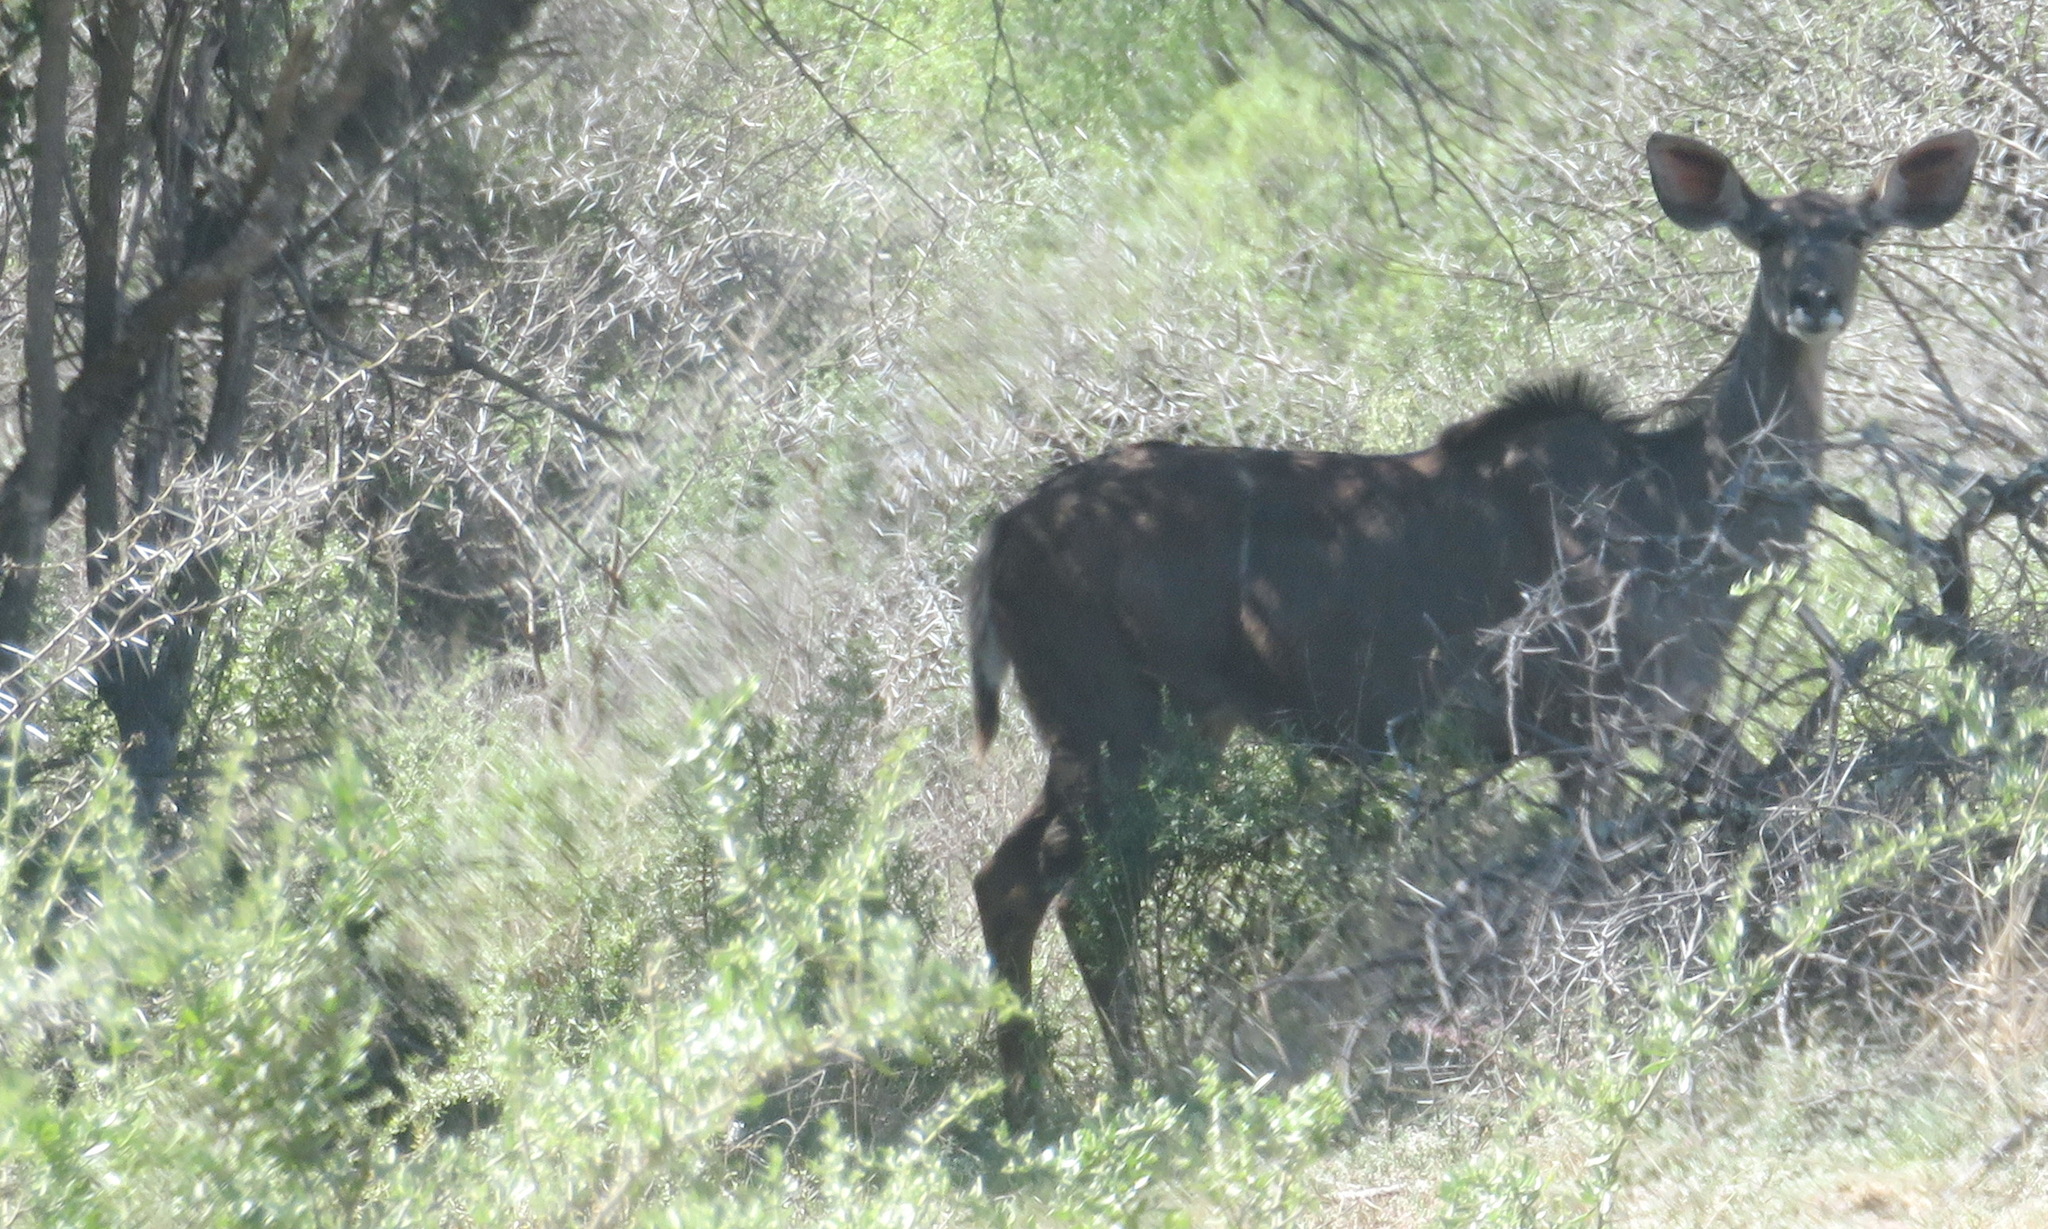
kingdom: Animalia
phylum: Chordata
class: Mammalia
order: Artiodactyla
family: Bovidae
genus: Tragelaphus
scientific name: Tragelaphus strepsiceros
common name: Greater kudu
